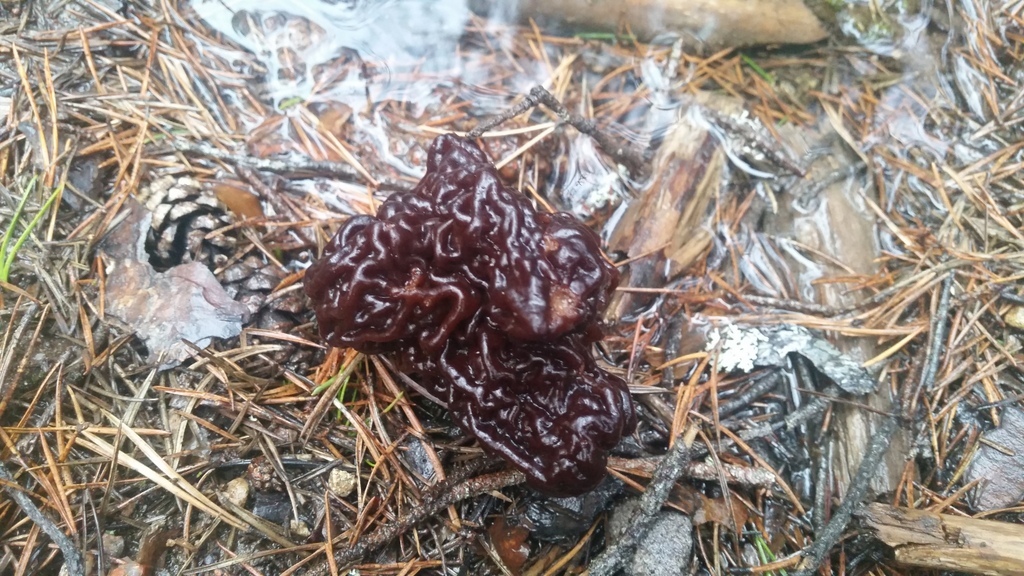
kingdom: Fungi
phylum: Ascomycota
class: Pezizomycetes
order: Pezizales
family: Discinaceae
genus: Gyromitra
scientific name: Gyromitra esculenta
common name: False morel
